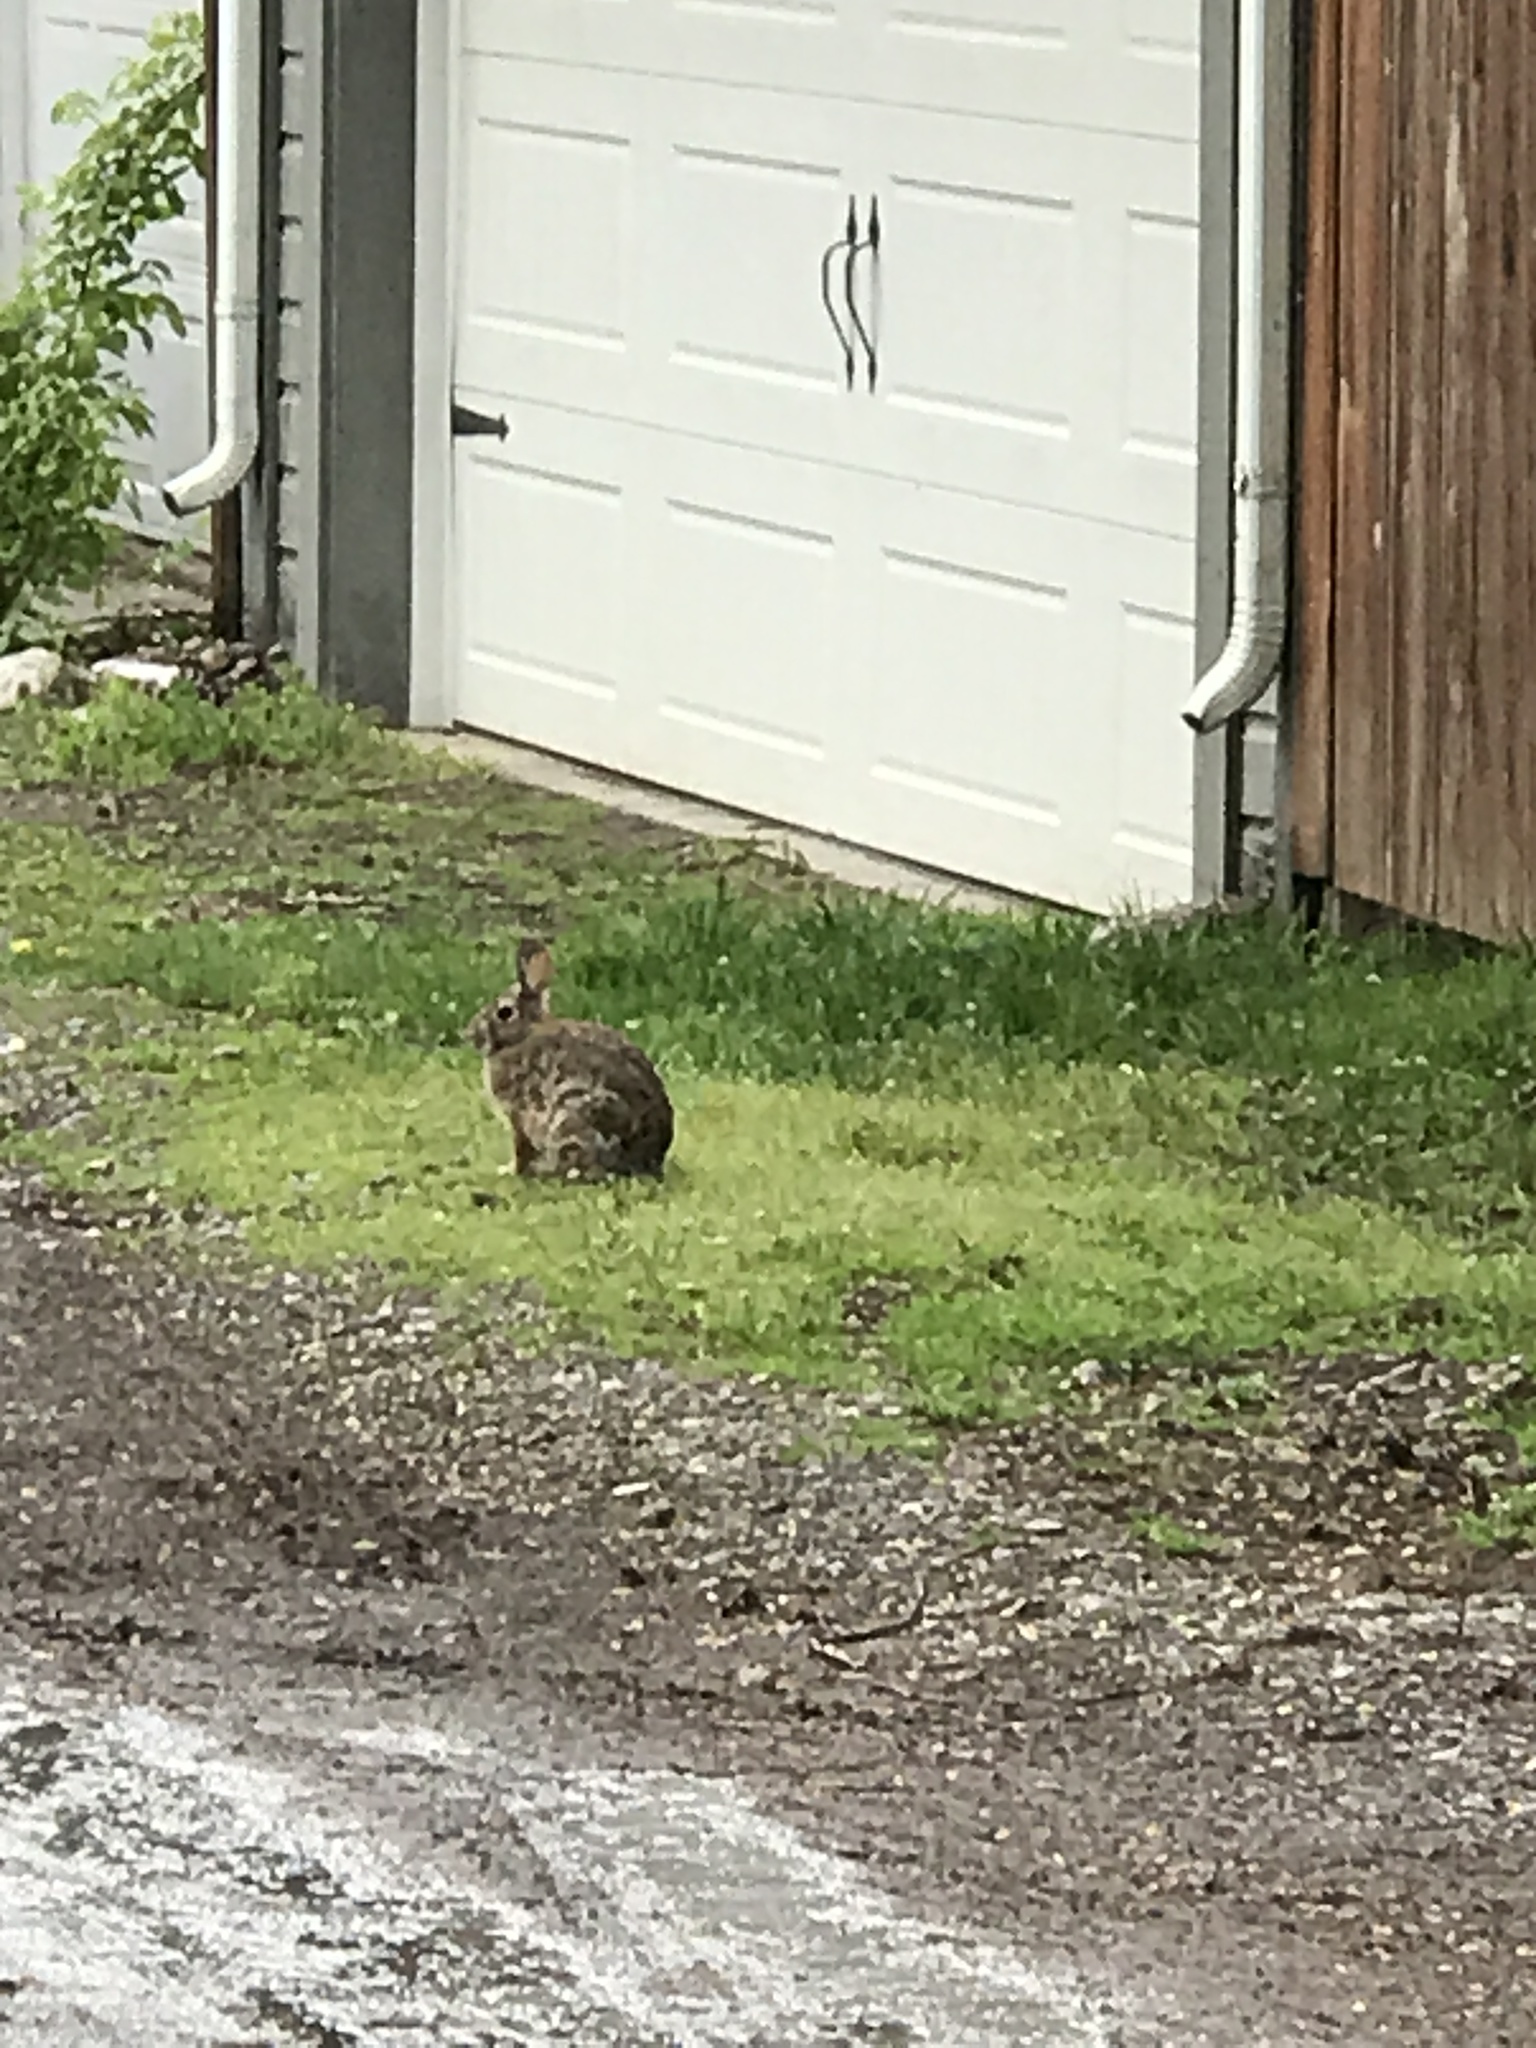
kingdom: Animalia
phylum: Chordata
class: Mammalia
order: Lagomorpha
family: Leporidae
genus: Sylvilagus
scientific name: Sylvilagus floridanus
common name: Eastern cottontail
